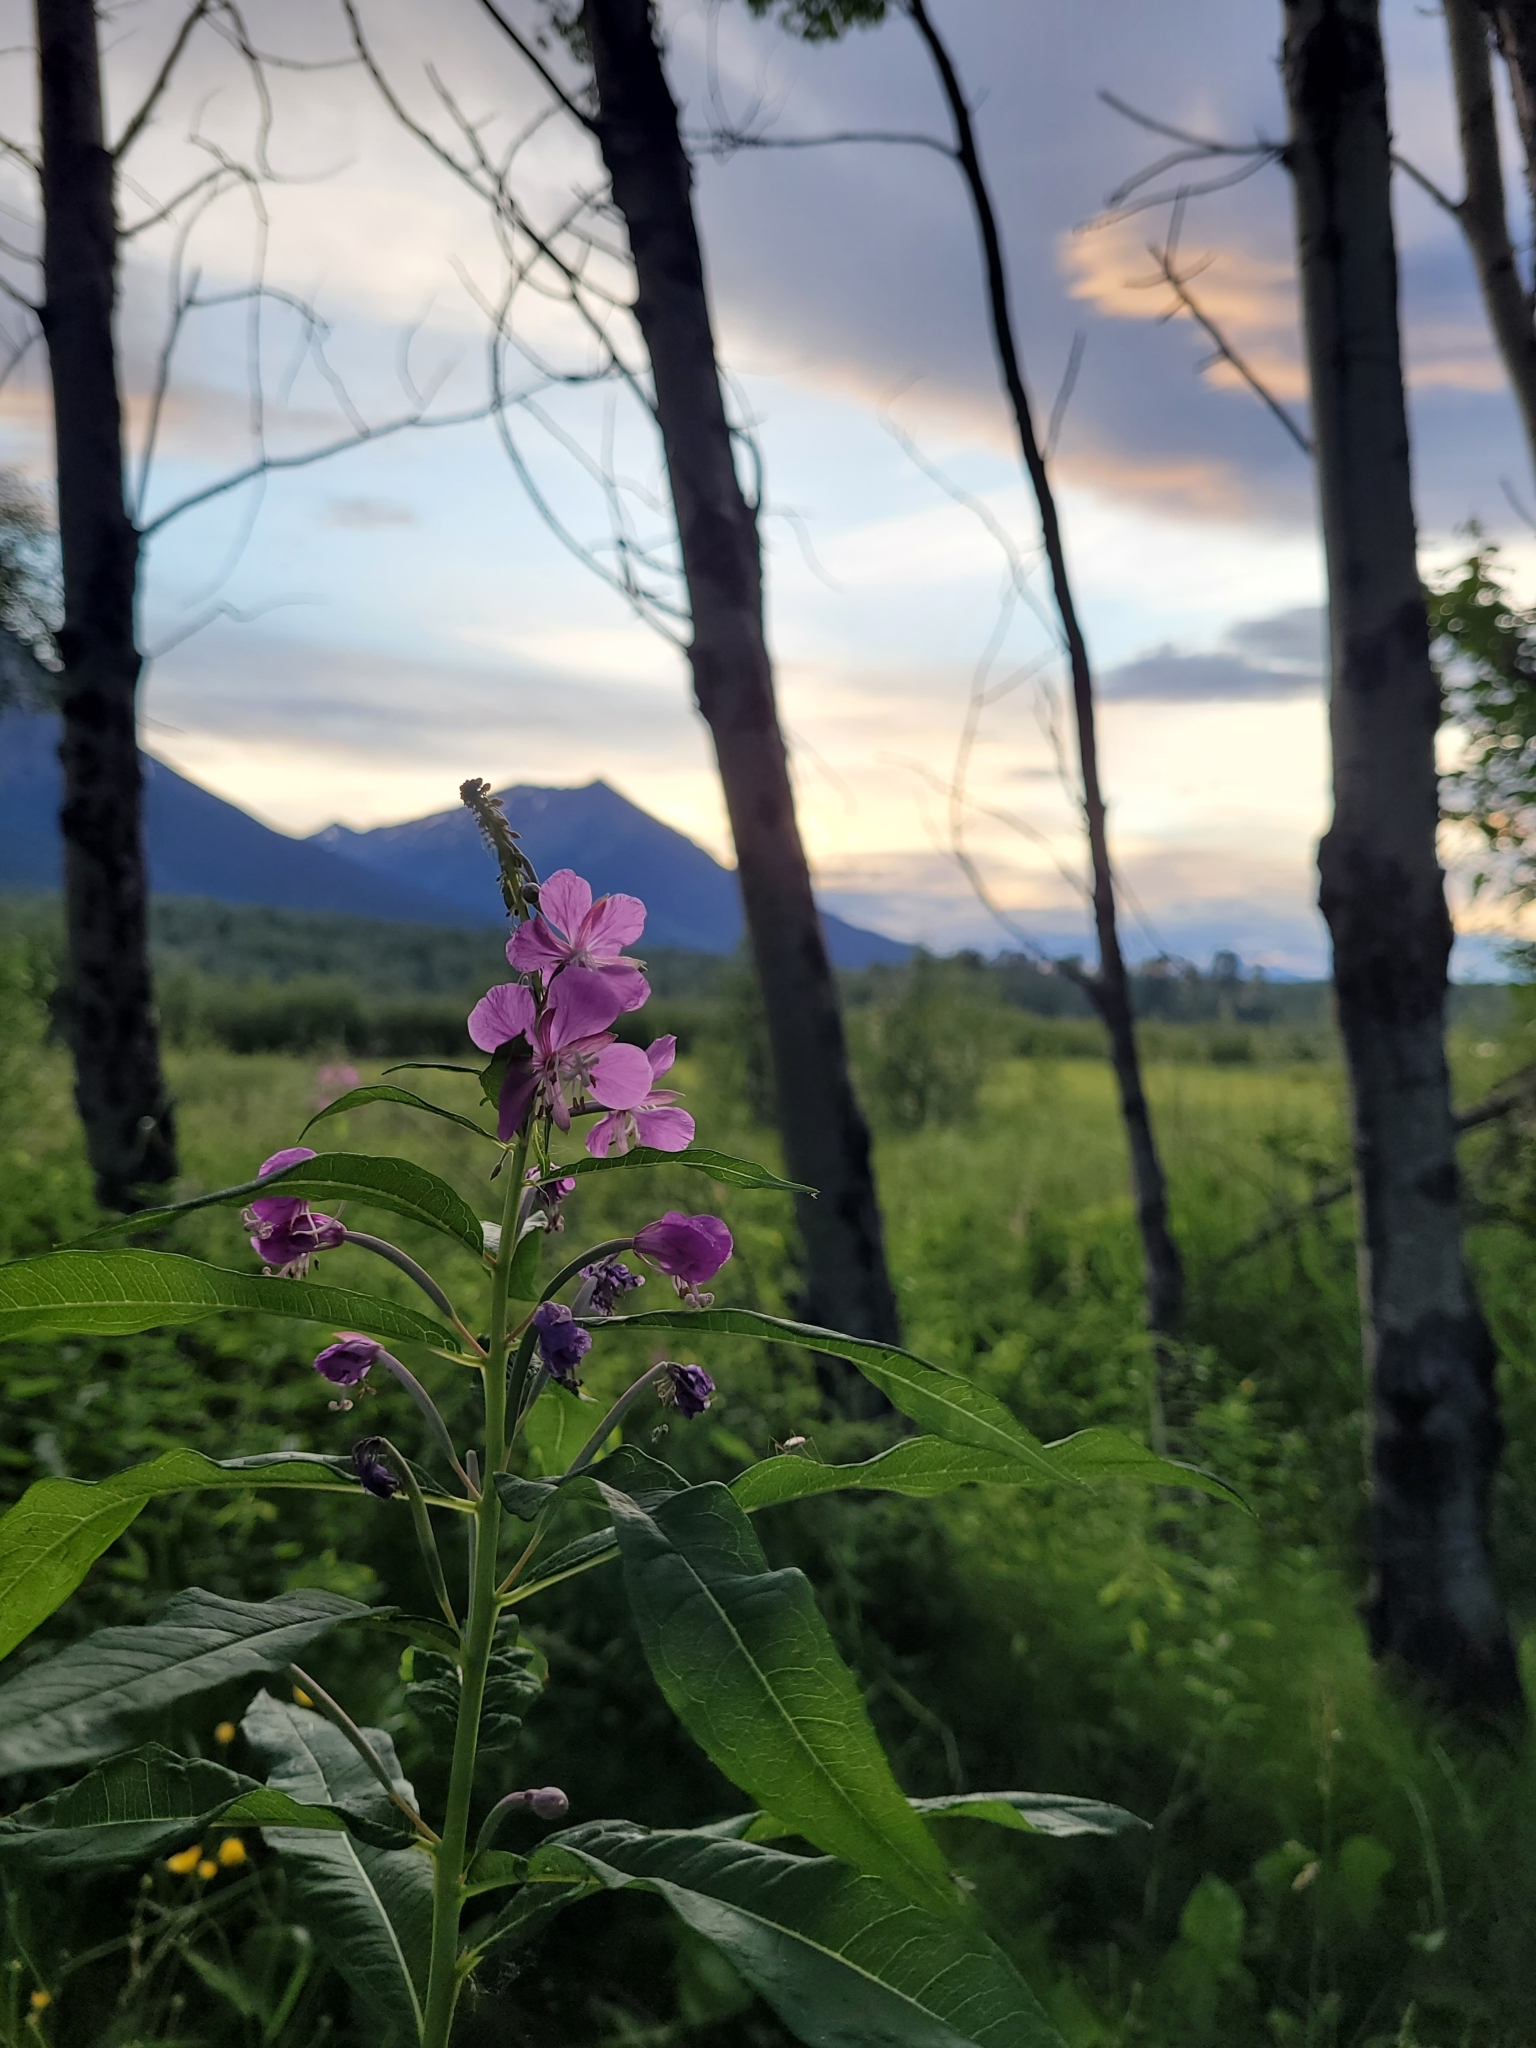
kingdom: Plantae
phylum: Tracheophyta
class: Magnoliopsida
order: Myrtales
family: Onagraceae
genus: Chamaenerion
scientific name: Chamaenerion angustifolium
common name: Fireweed
